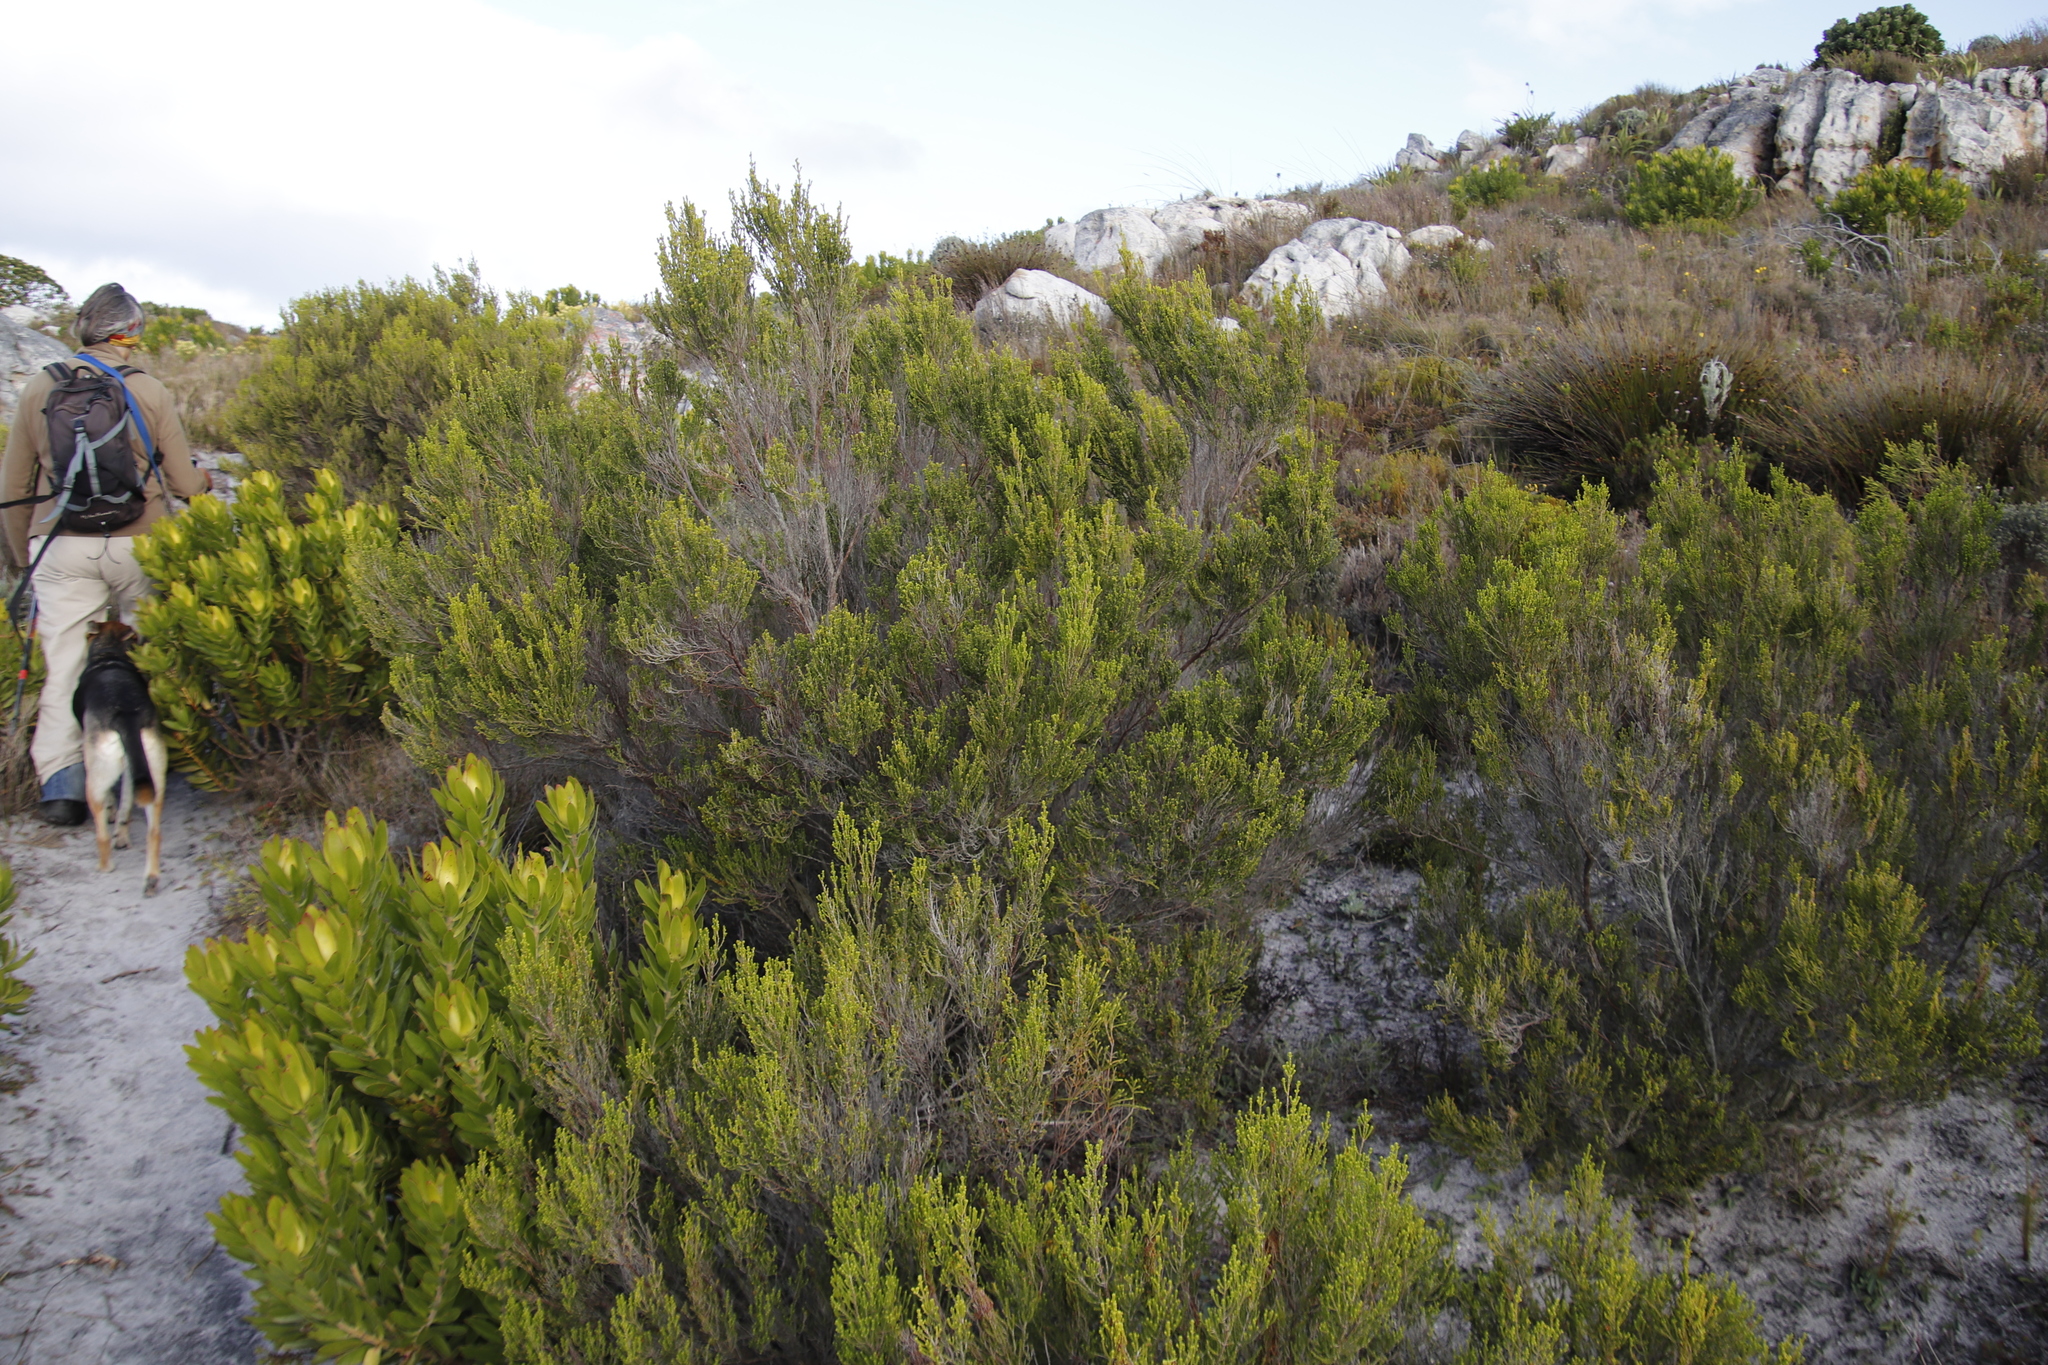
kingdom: Plantae
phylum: Tracheophyta
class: Magnoliopsida
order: Ericales
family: Ericaceae
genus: Erica
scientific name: Erica tristis
